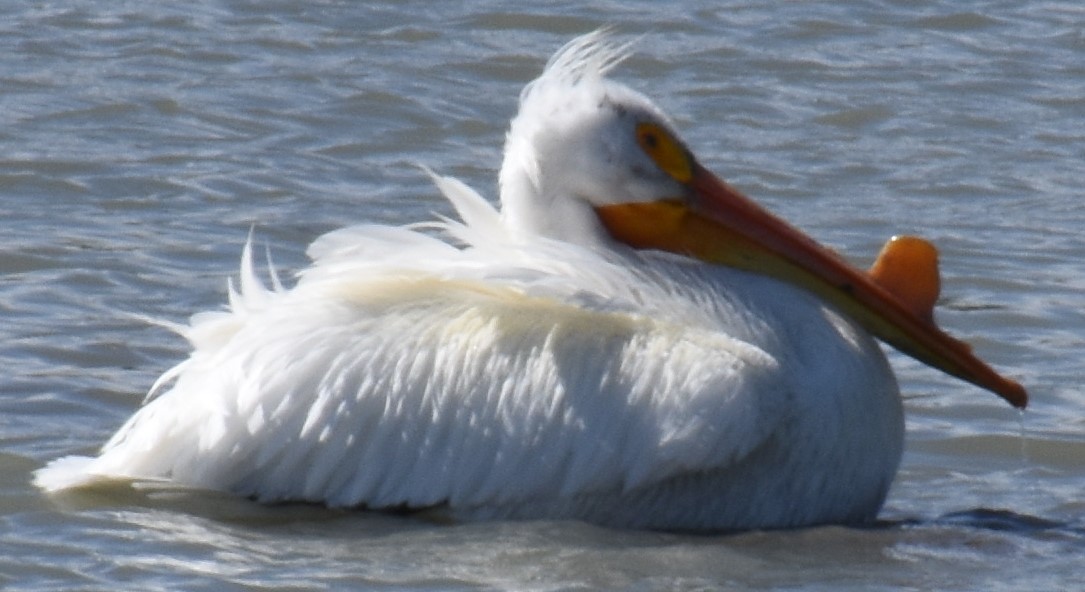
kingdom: Animalia
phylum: Chordata
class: Aves
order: Pelecaniformes
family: Pelecanidae
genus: Pelecanus
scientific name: Pelecanus erythrorhynchos
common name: American white pelican
